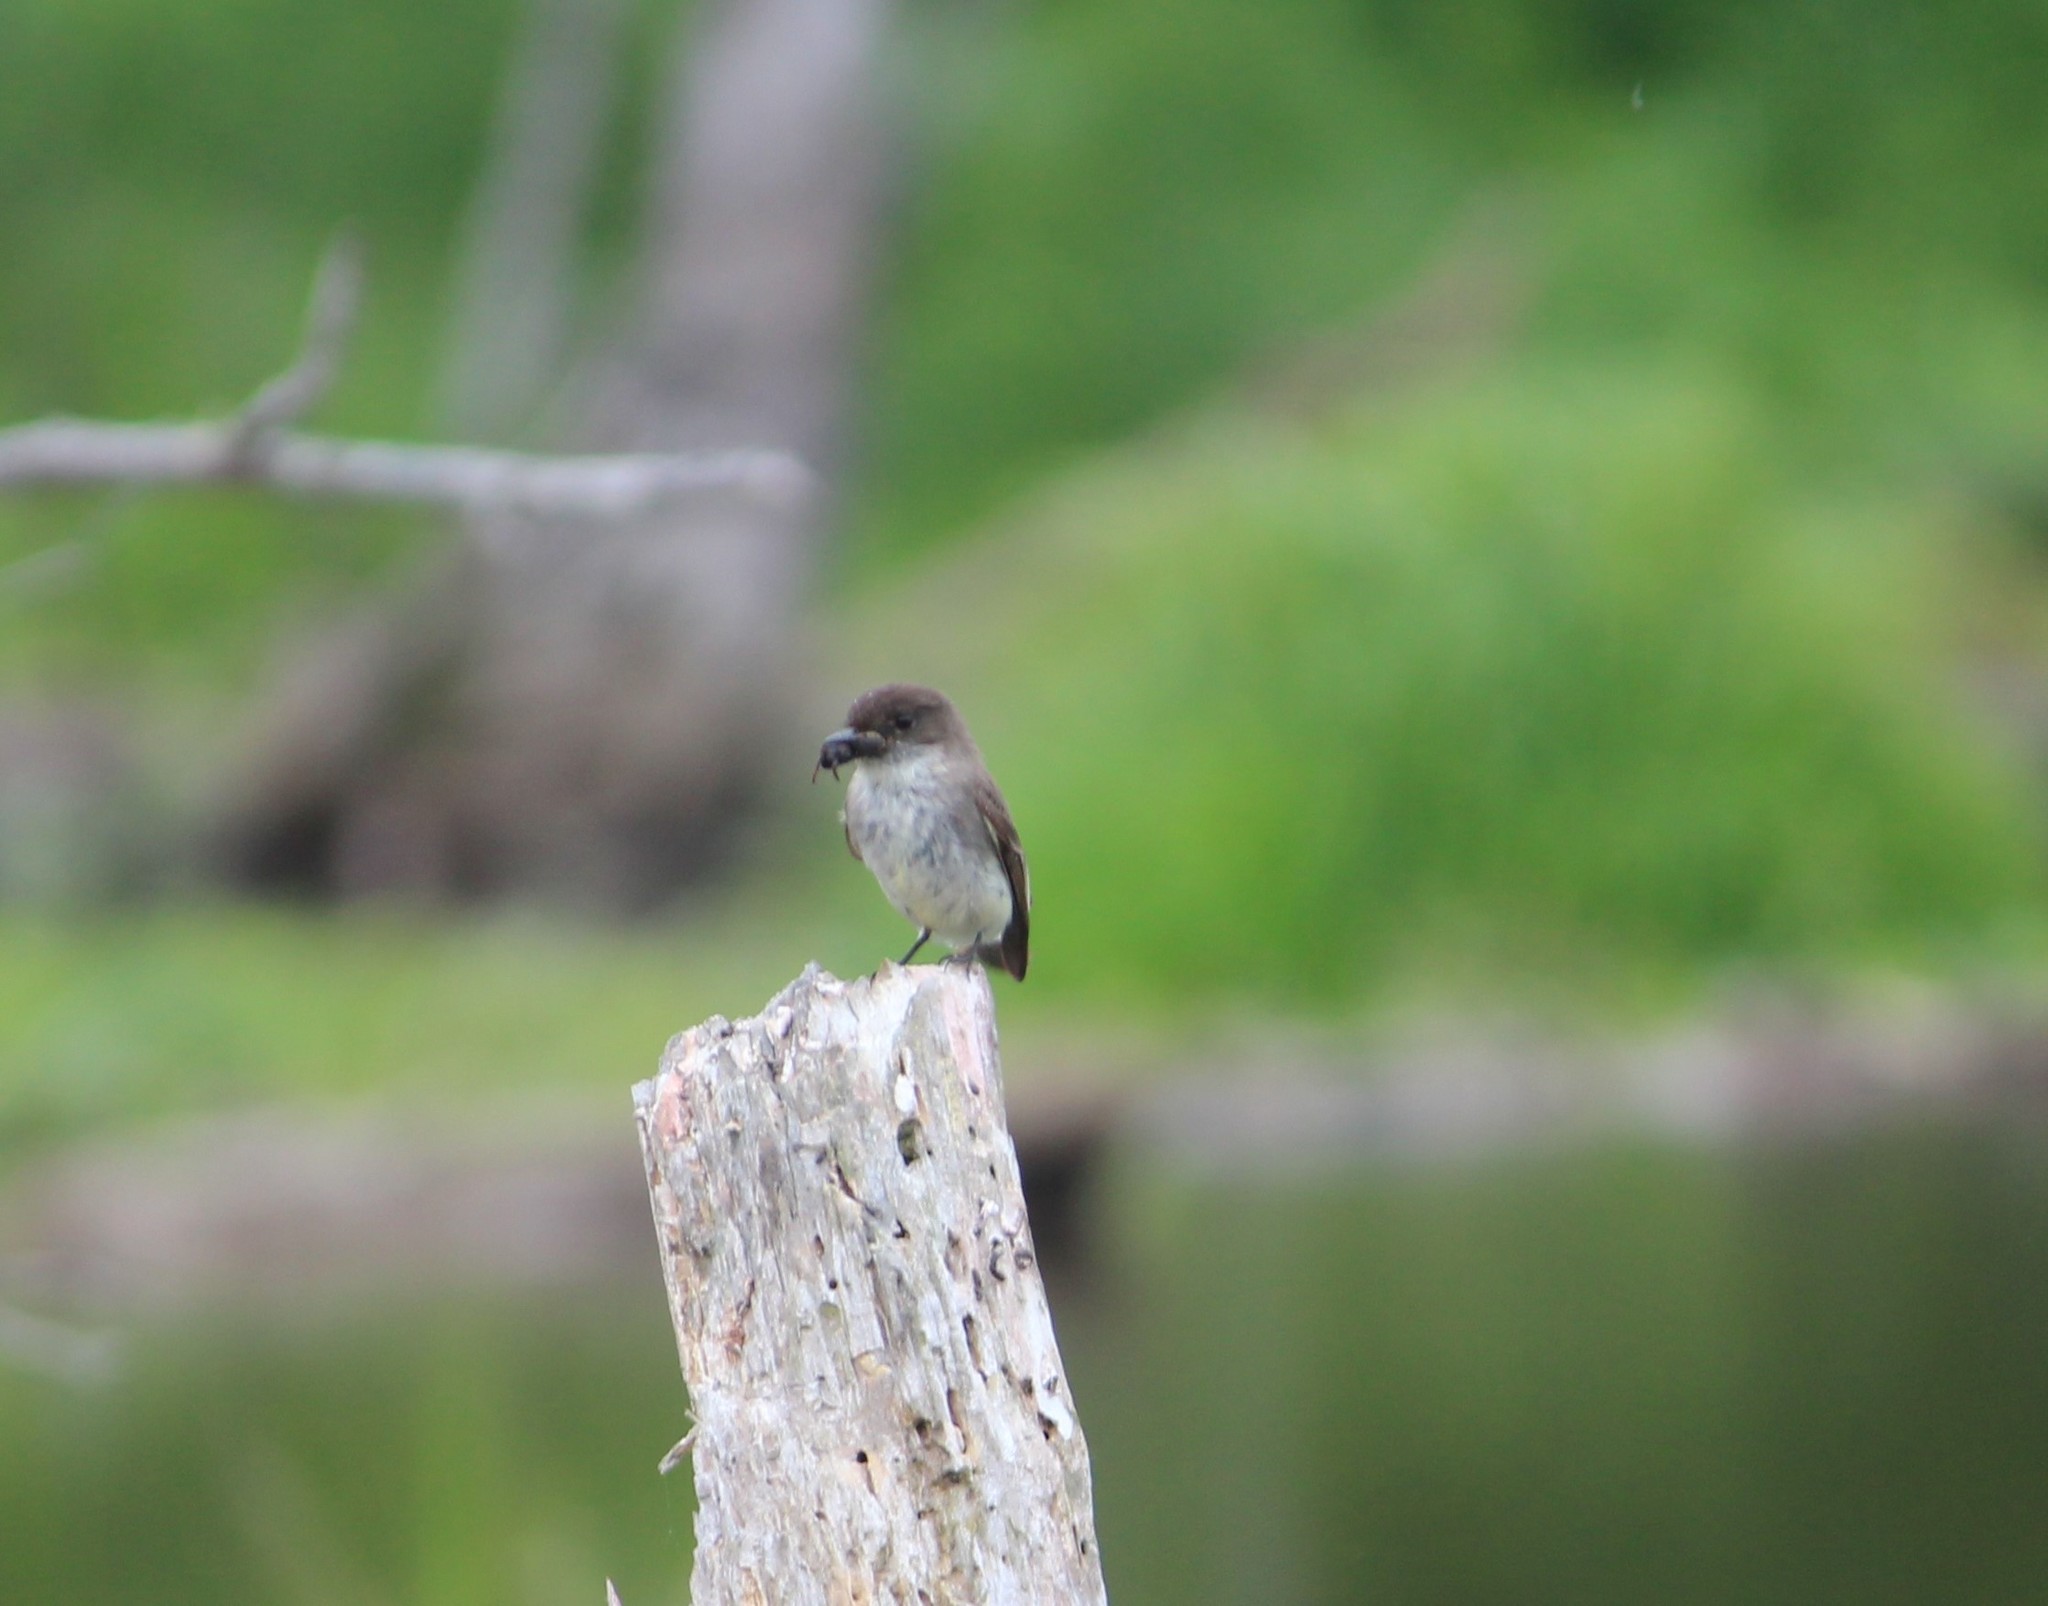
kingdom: Animalia
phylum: Chordata
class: Aves
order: Passeriformes
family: Tyrannidae
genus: Sayornis
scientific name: Sayornis phoebe
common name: Eastern phoebe
